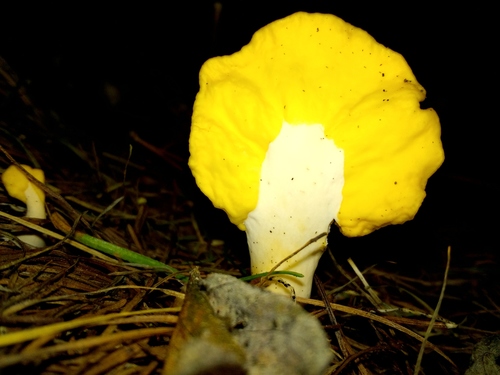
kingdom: Fungi
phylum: Ascomycota
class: Leotiomycetes
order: Rhytismatales
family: Cudoniaceae
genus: Spathularia
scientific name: Spathularia flavida
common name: Yellow fan
